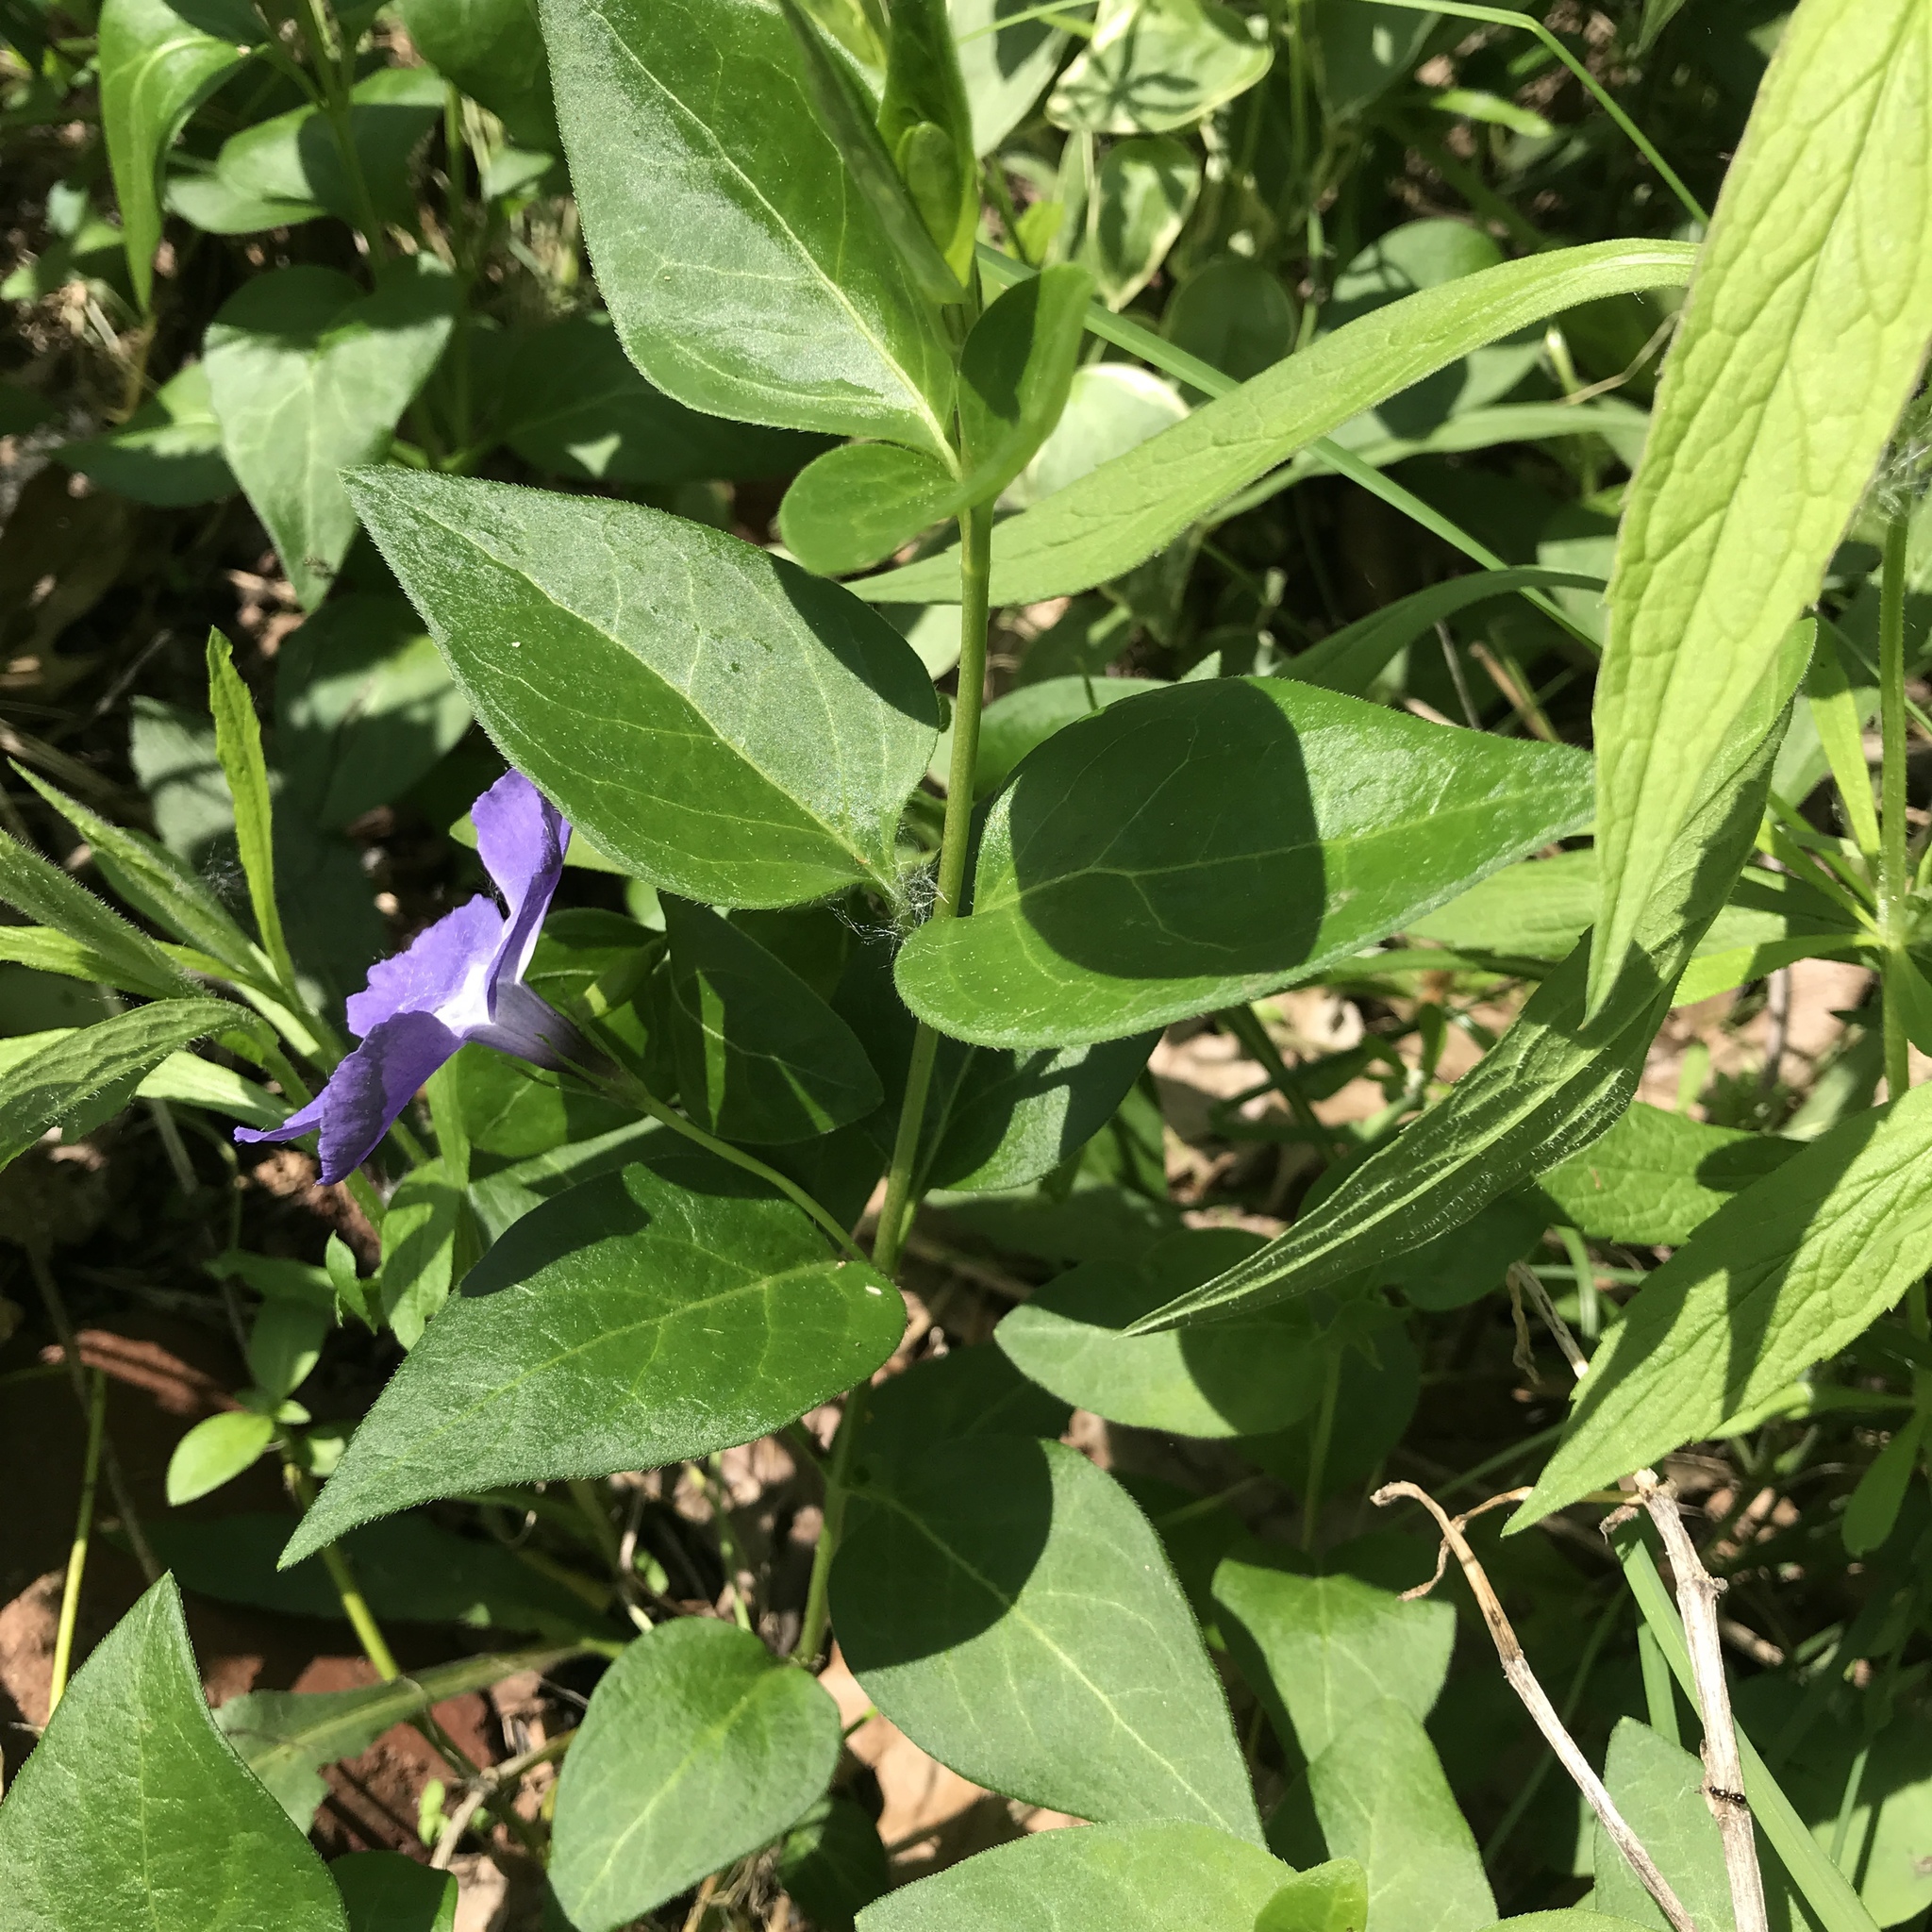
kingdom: Plantae
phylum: Tracheophyta
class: Magnoliopsida
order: Gentianales
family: Apocynaceae
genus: Vinca
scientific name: Vinca major
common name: Greater periwinkle
